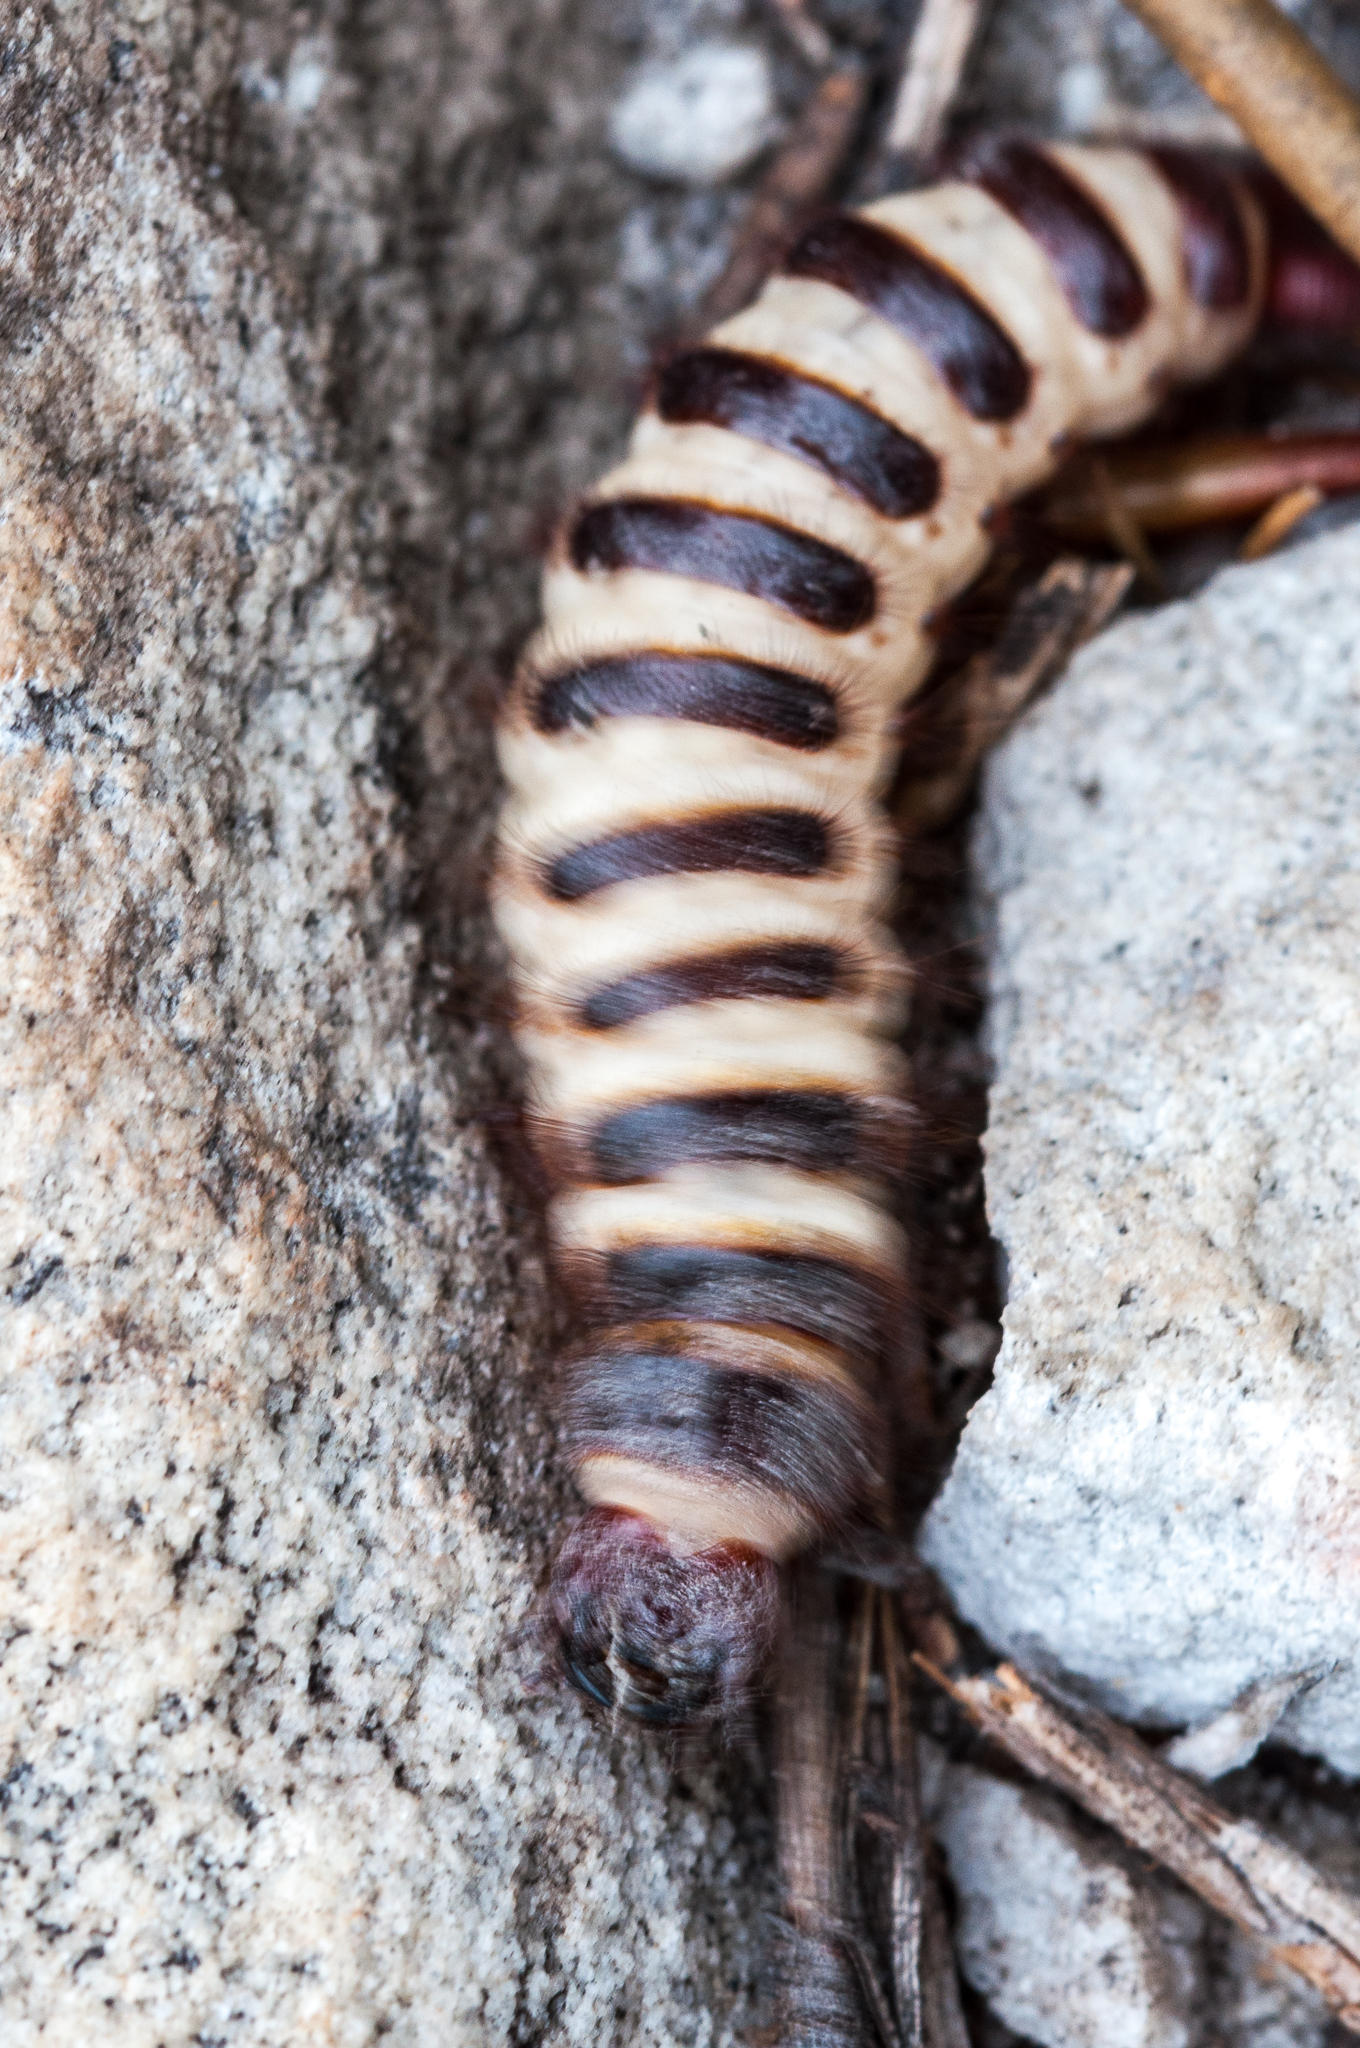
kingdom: Animalia
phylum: Arthropoda
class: Insecta
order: Coleoptera
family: Carabidae
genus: Anthia
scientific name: Anthia decemguttata
